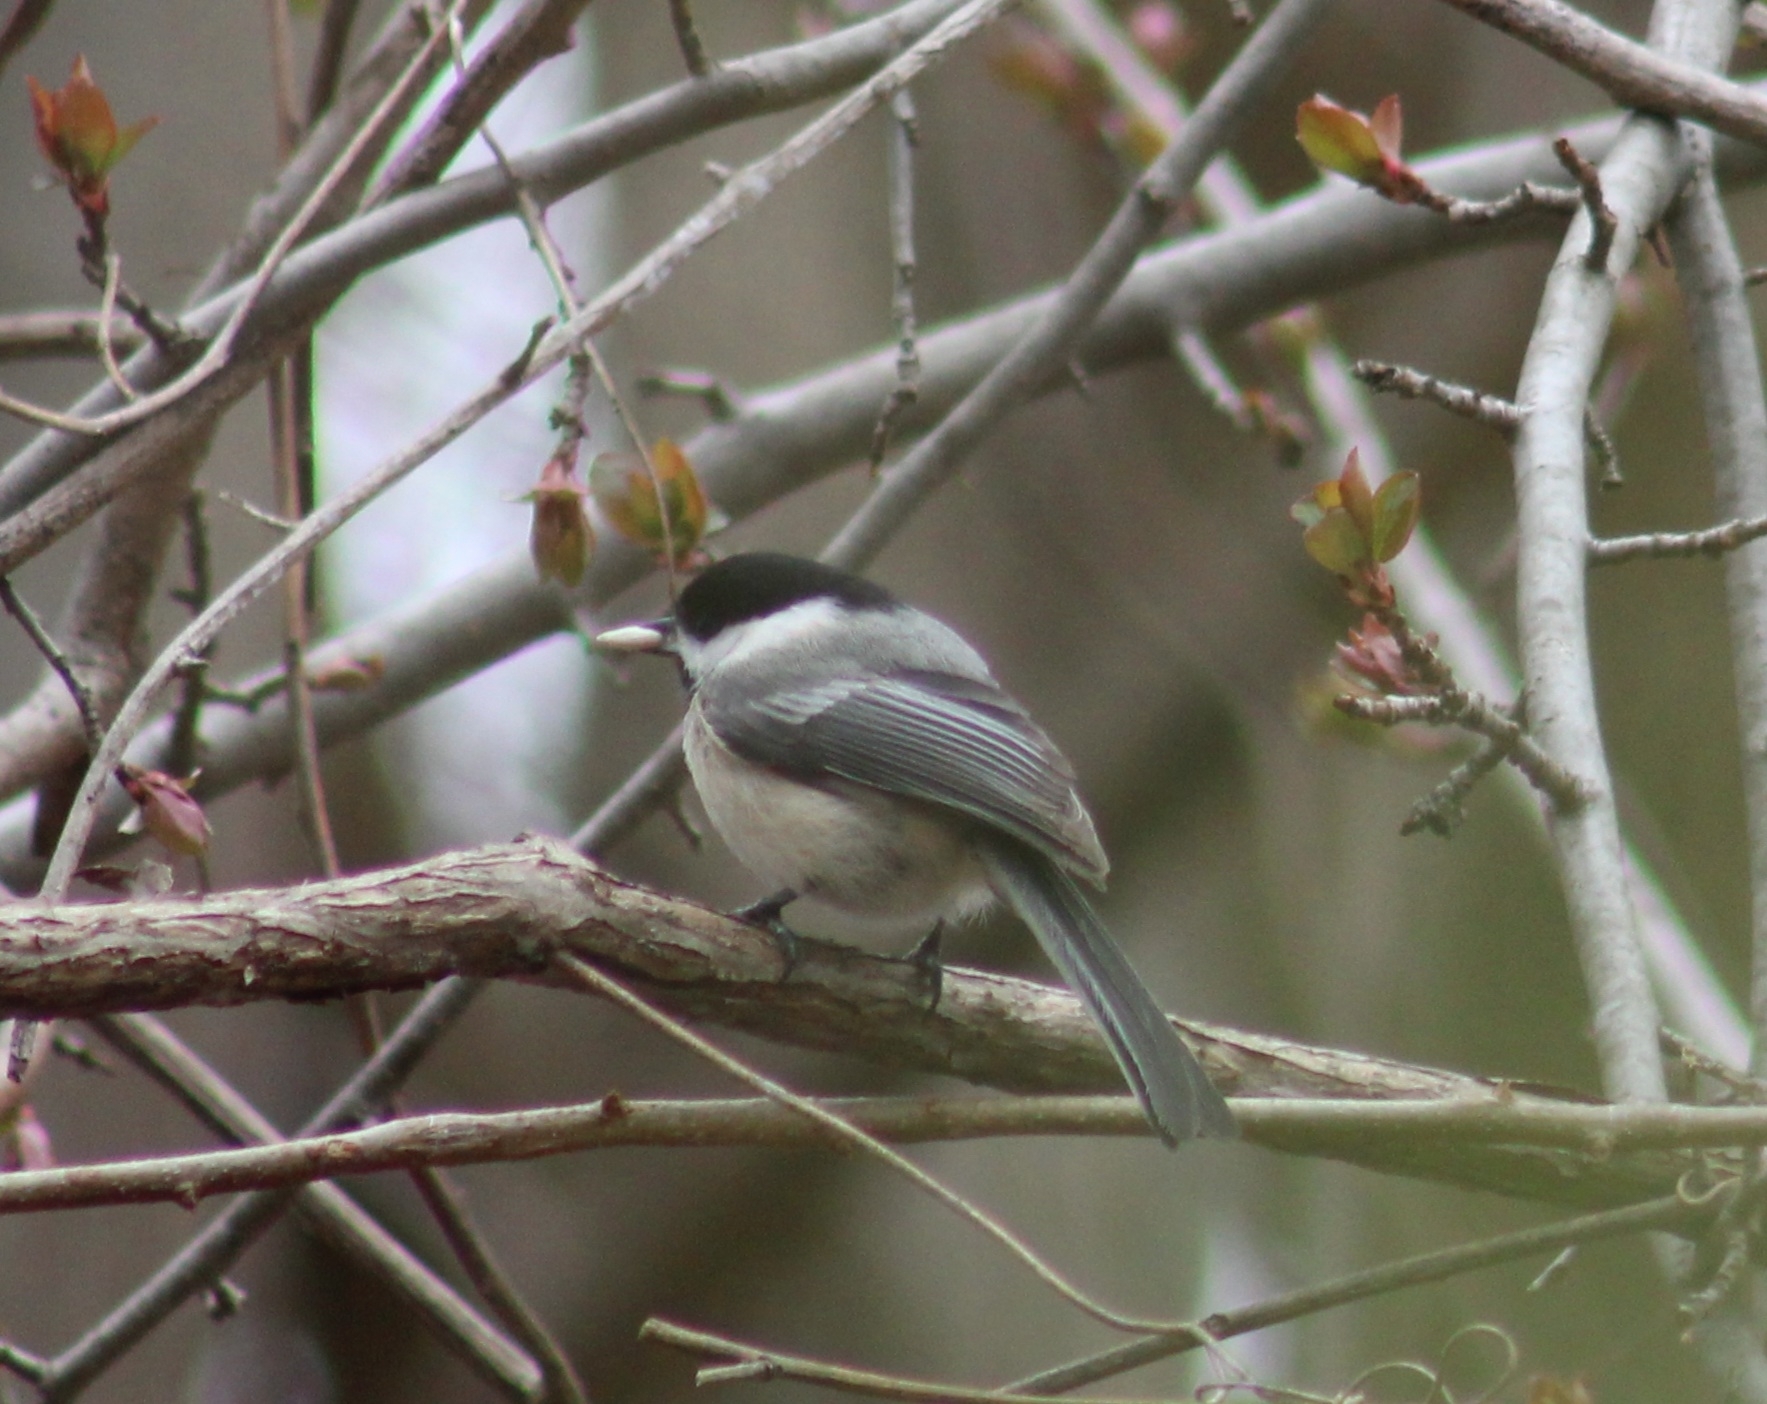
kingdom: Animalia
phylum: Chordata
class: Aves
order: Passeriformes
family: Paridae
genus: Poecile
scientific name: Poecile atricapillus
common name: Black-capped chickadee
